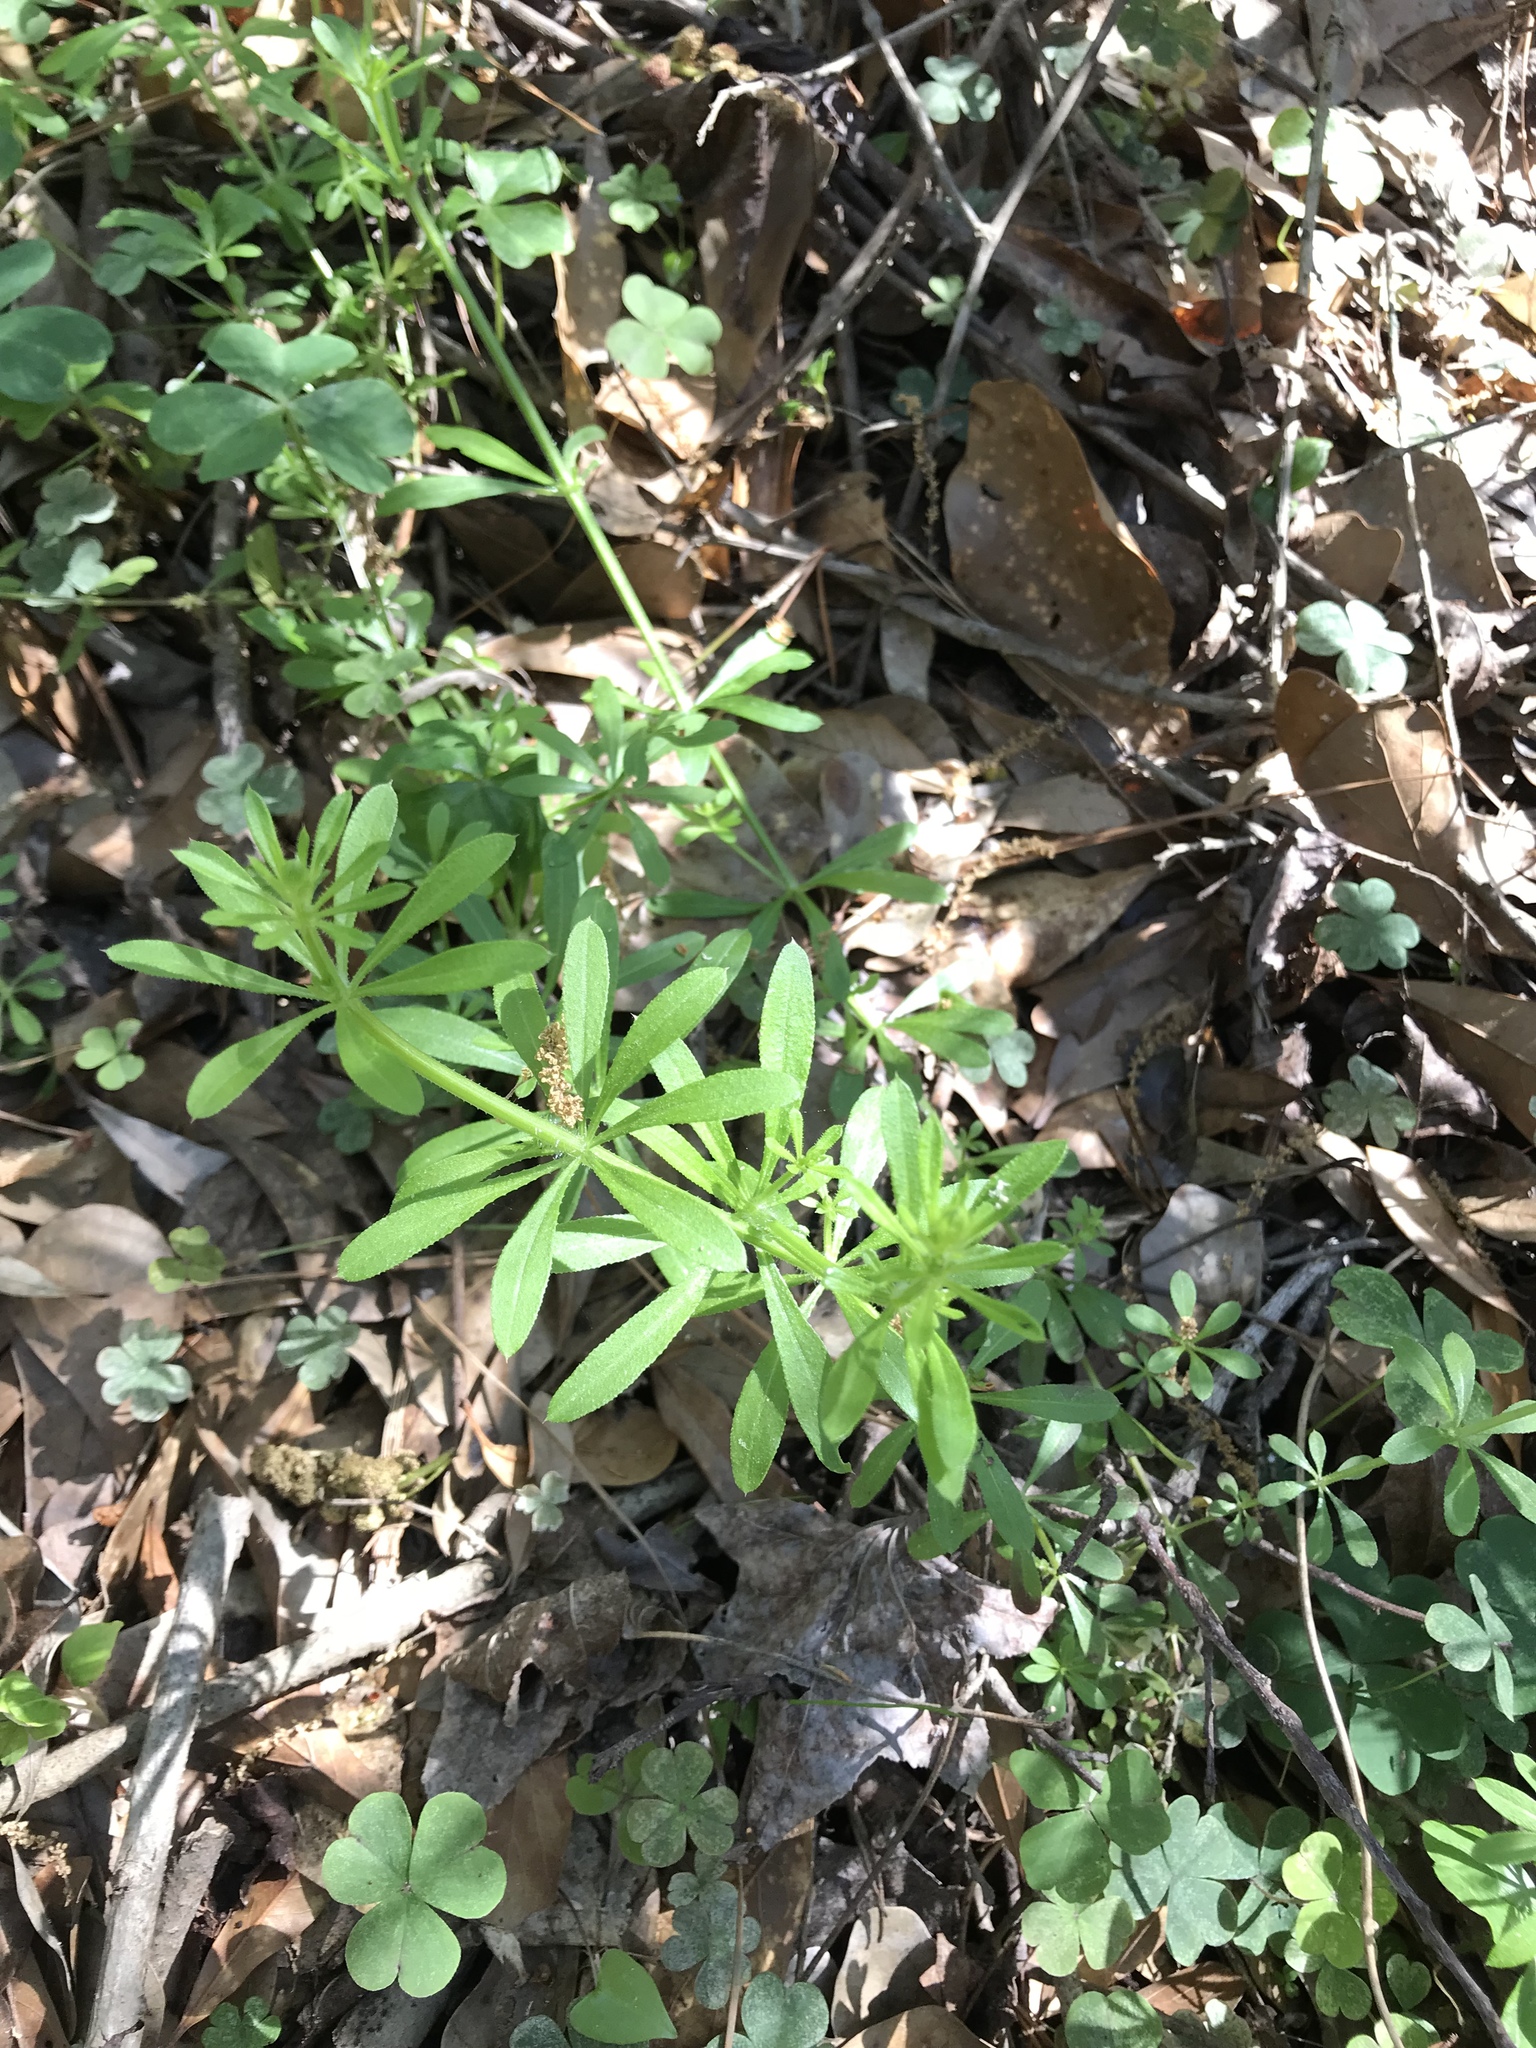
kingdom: Plantae
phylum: Tracheophyta
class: Magnoliopsida
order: Gentianales
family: Rubiaceae
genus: Galium
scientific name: Galium aparine
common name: Cleavers
